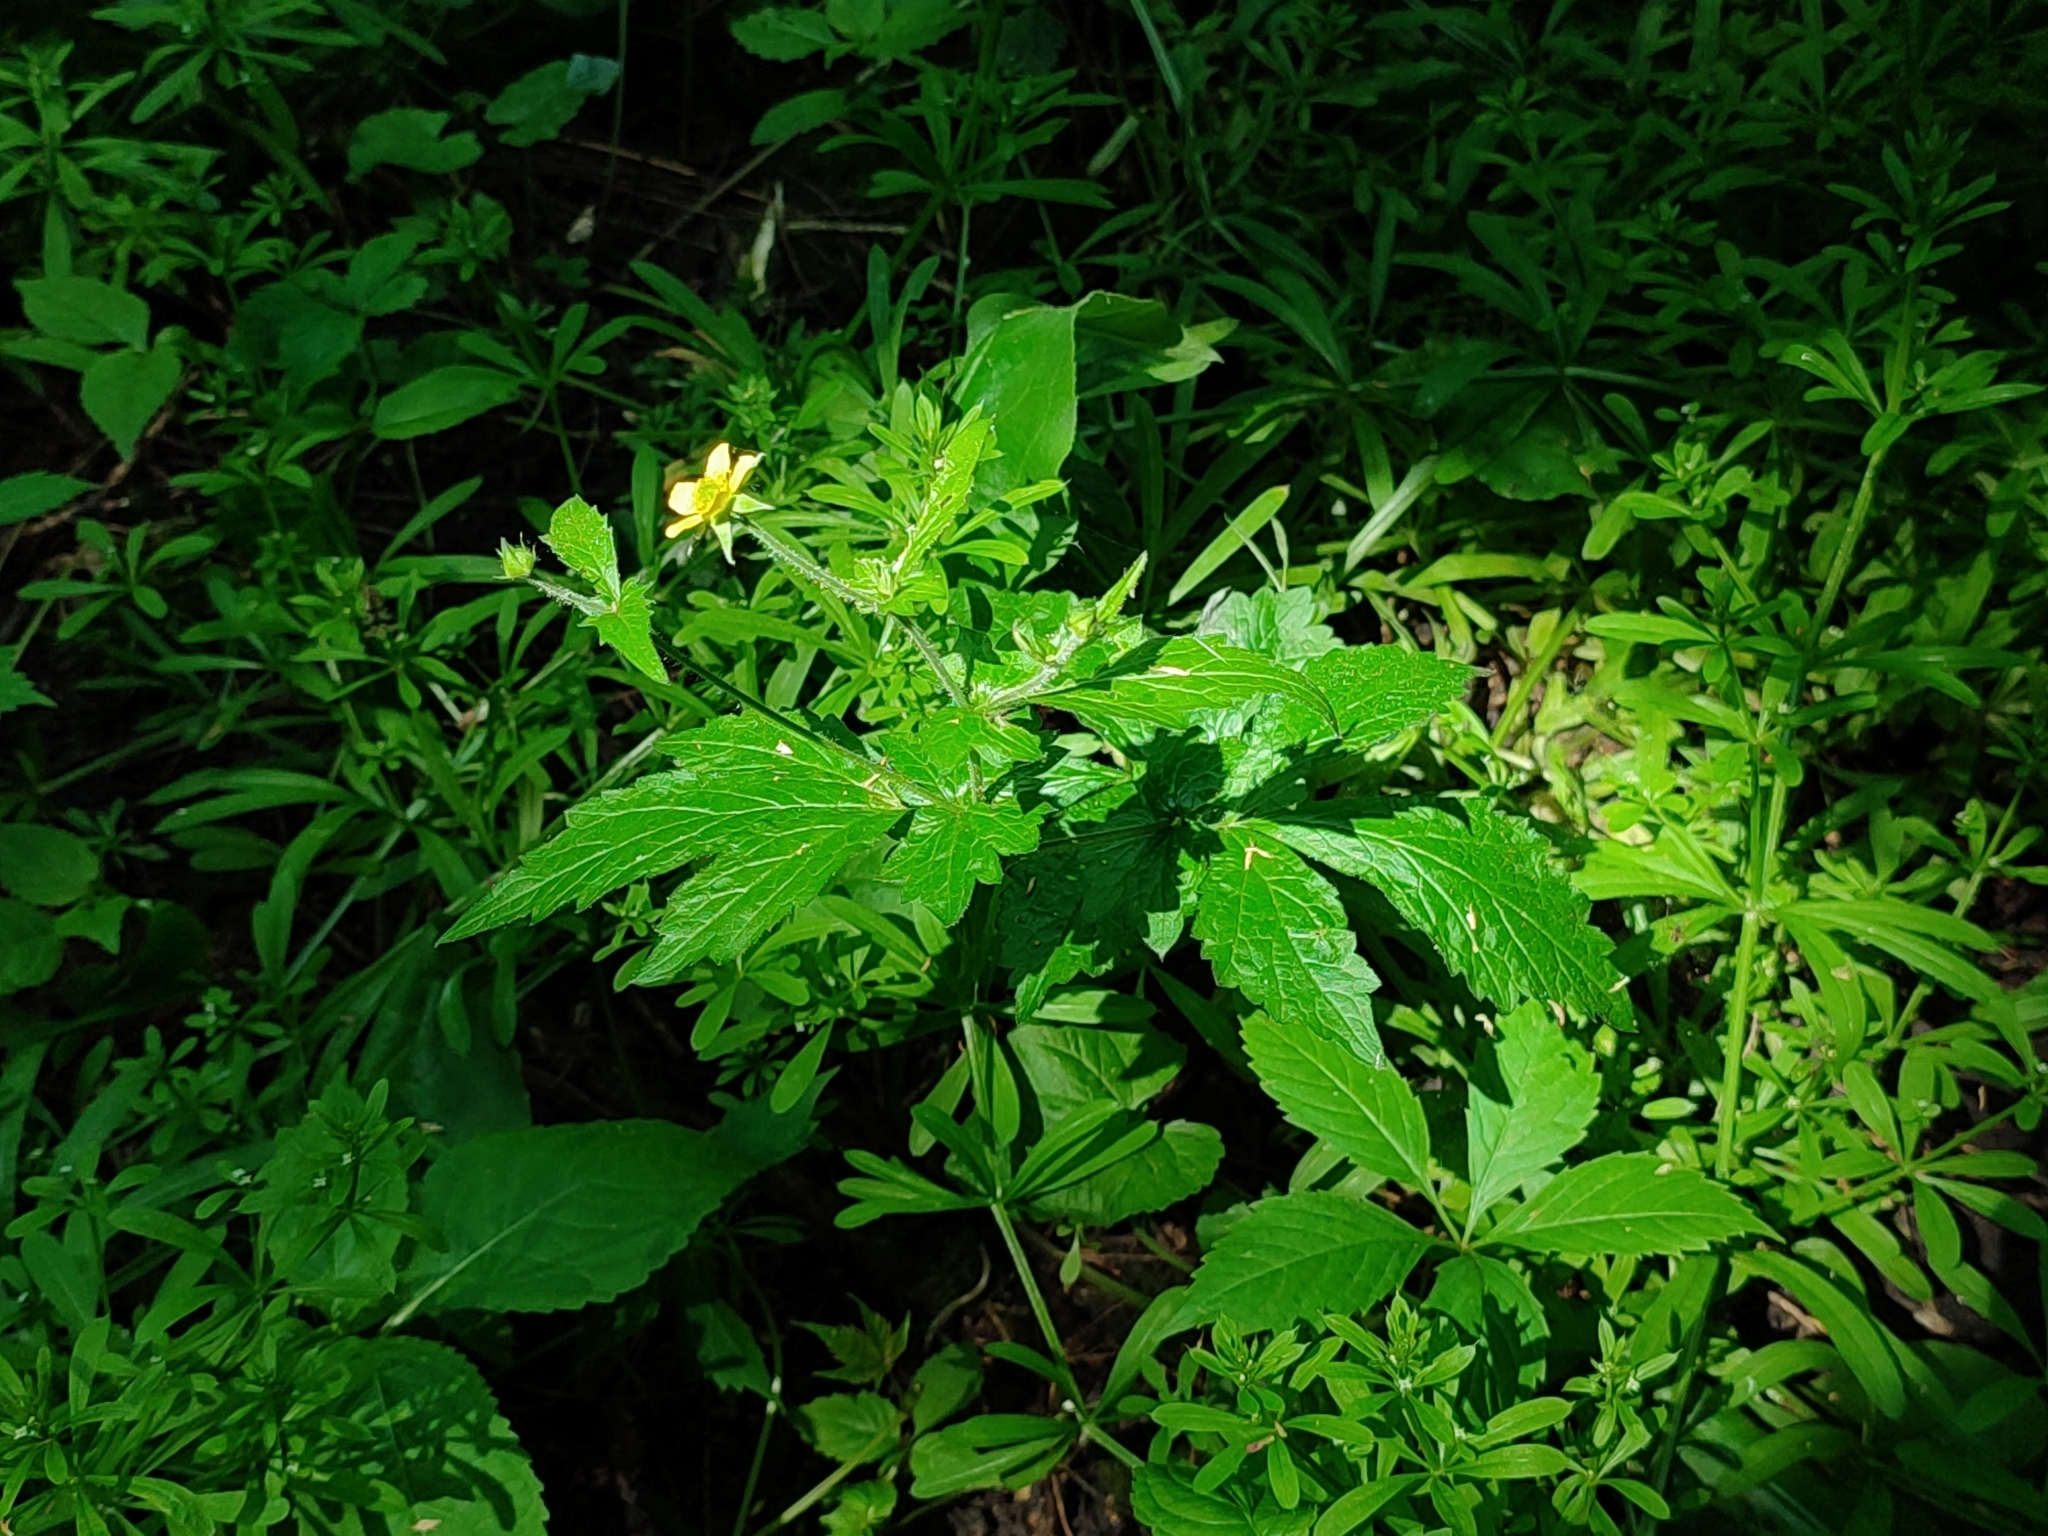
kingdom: Plantae
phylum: Tracheophyta
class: Magnoliopsida
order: Rosales
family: Rosaceae
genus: Geum
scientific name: Geum aleppicum
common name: Yellow avens
